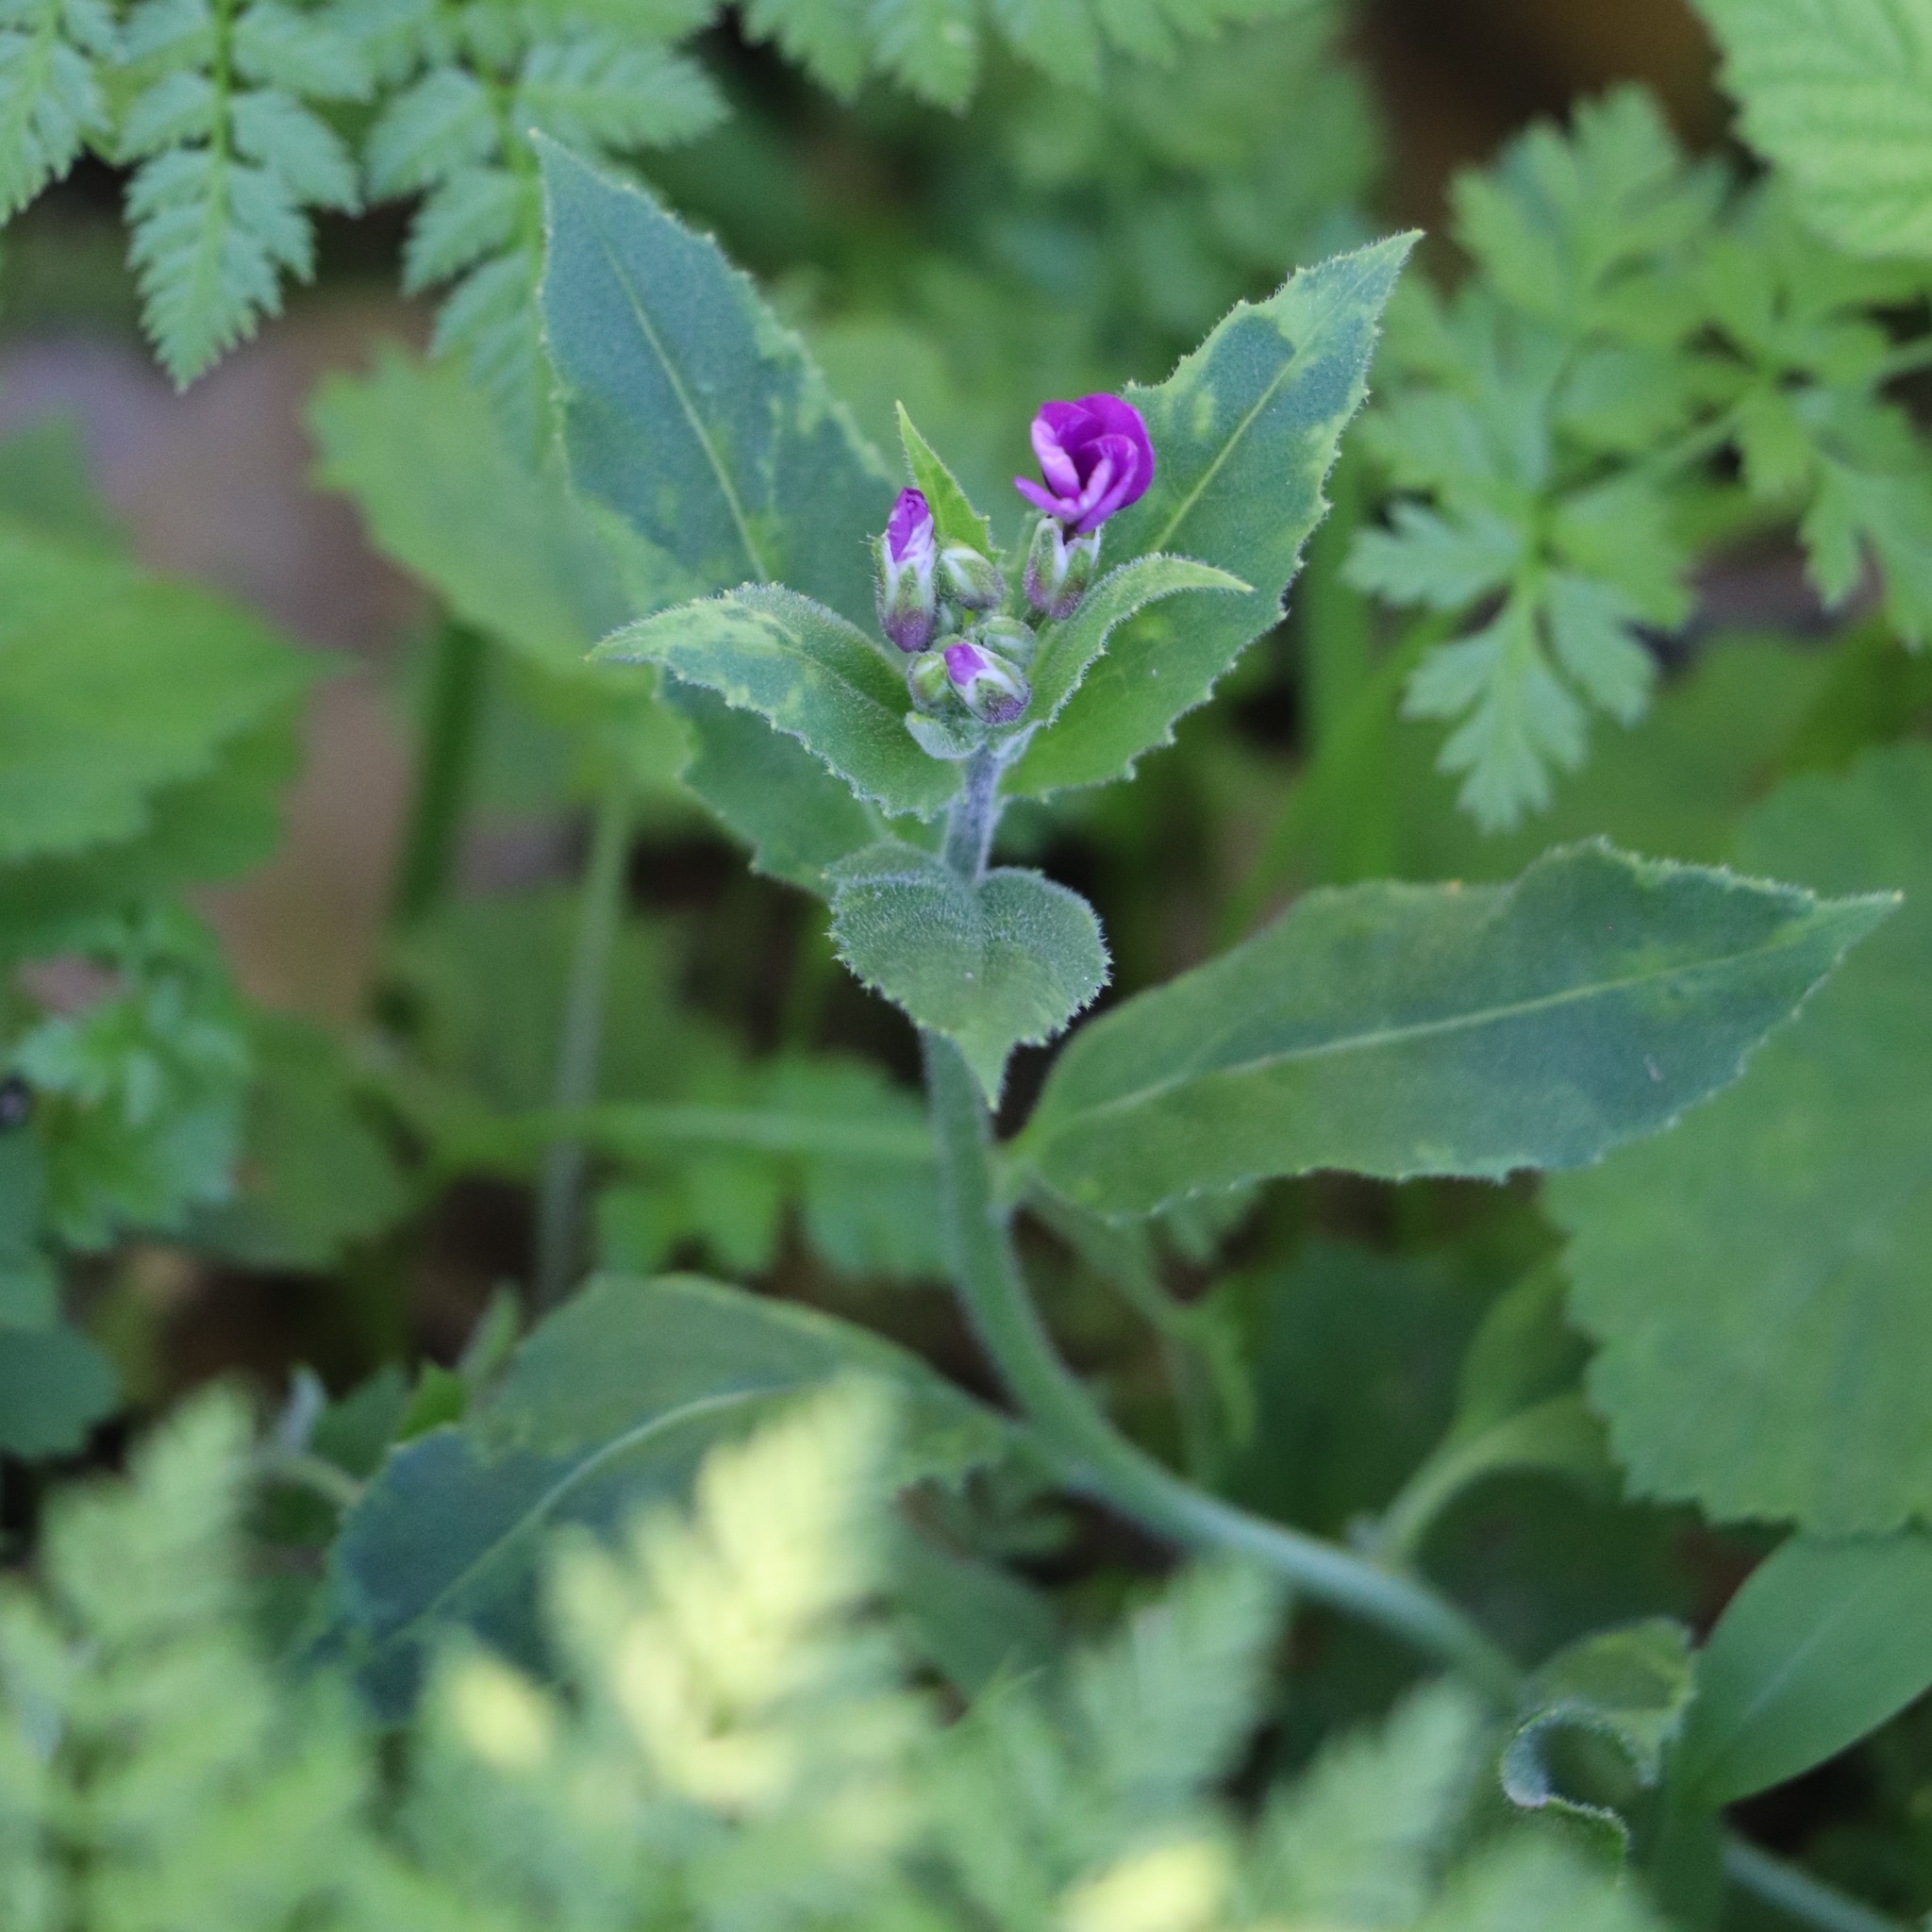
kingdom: Plantae
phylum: Tracheophyta
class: Magnoliopsida
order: Brassicales
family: Brassicaceae
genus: Hesperis
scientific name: Hesperis matronalis
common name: Dame's-violet
